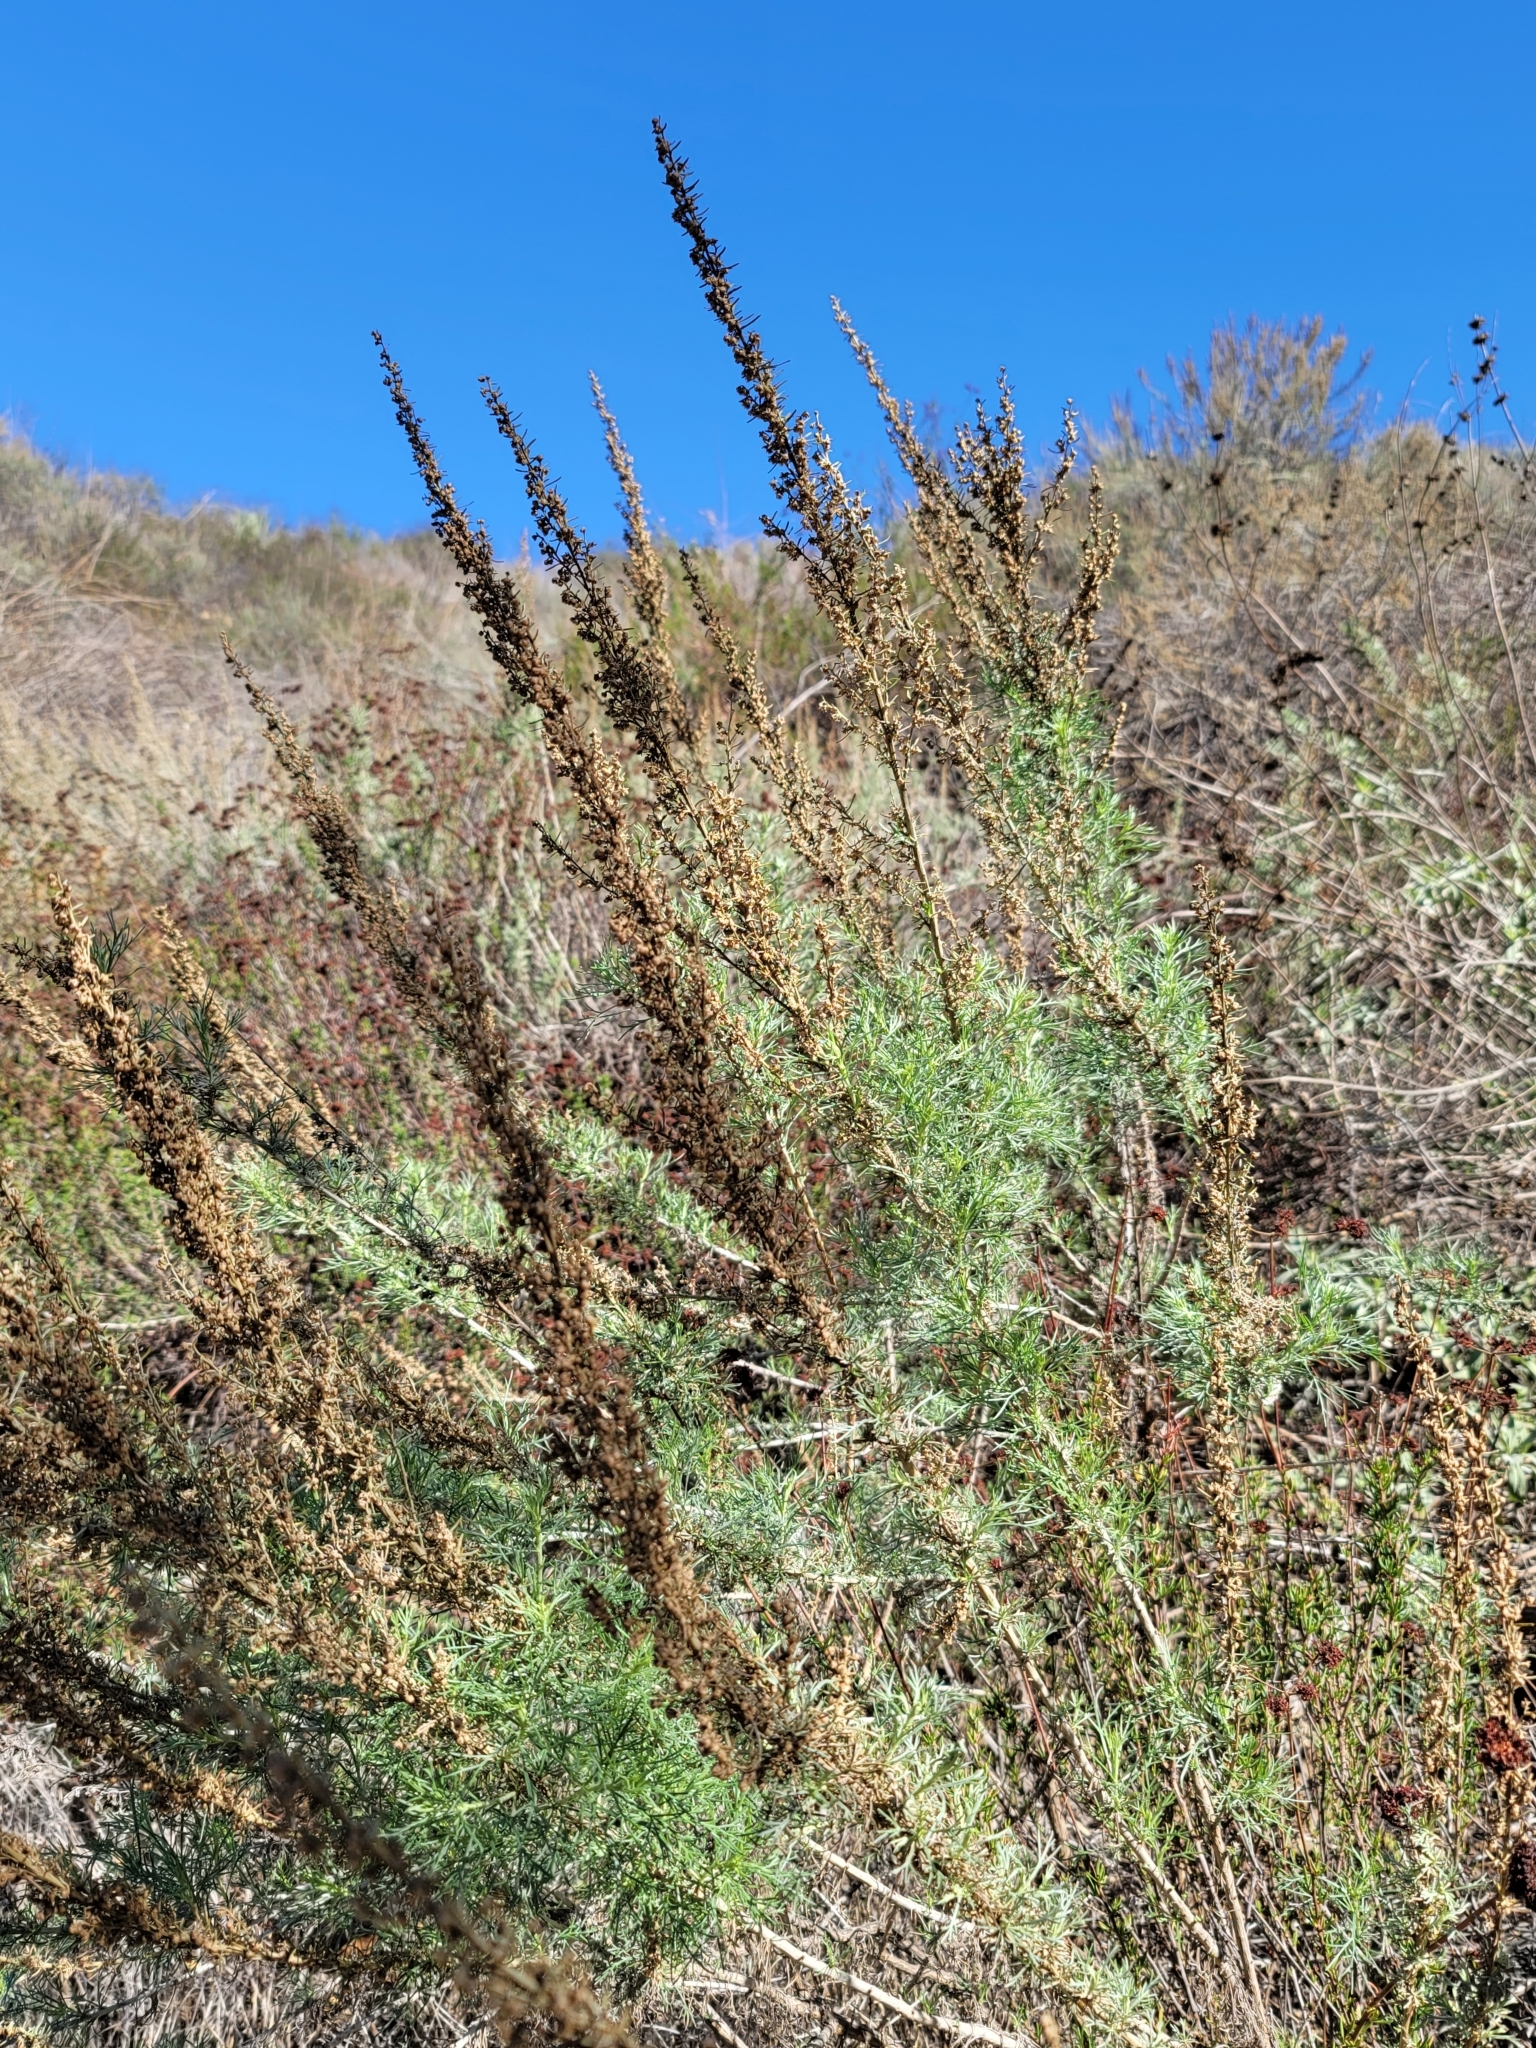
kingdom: Plantae
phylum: Tracheophyta
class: Magnoliopsida
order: Asterales
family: Asteraceae
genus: Artemisia
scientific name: Artemisia californica
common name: California sagebrush
